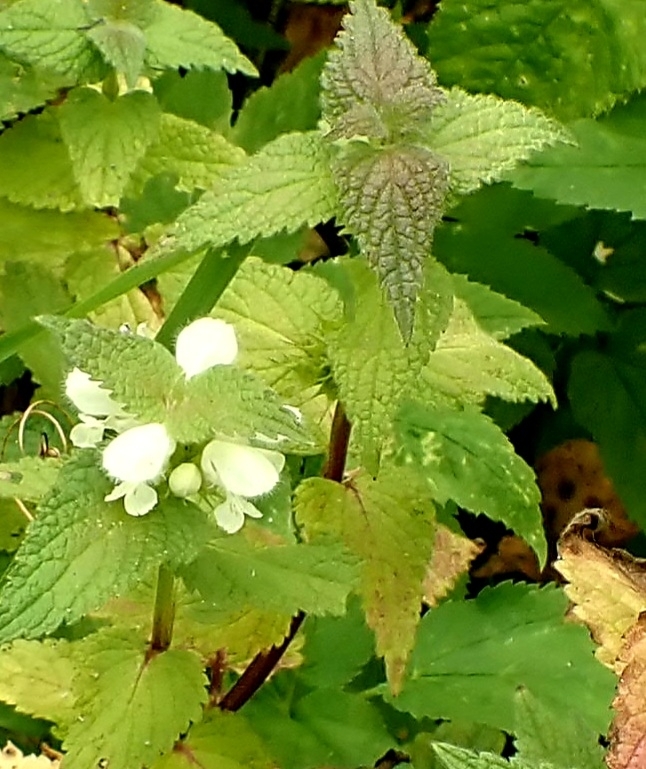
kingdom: Plantae
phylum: Tracheophyta
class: Magnoliopsida
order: Lamiales
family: Lamiaceae
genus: Lamium
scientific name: Lamium album
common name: White dead-nettle
